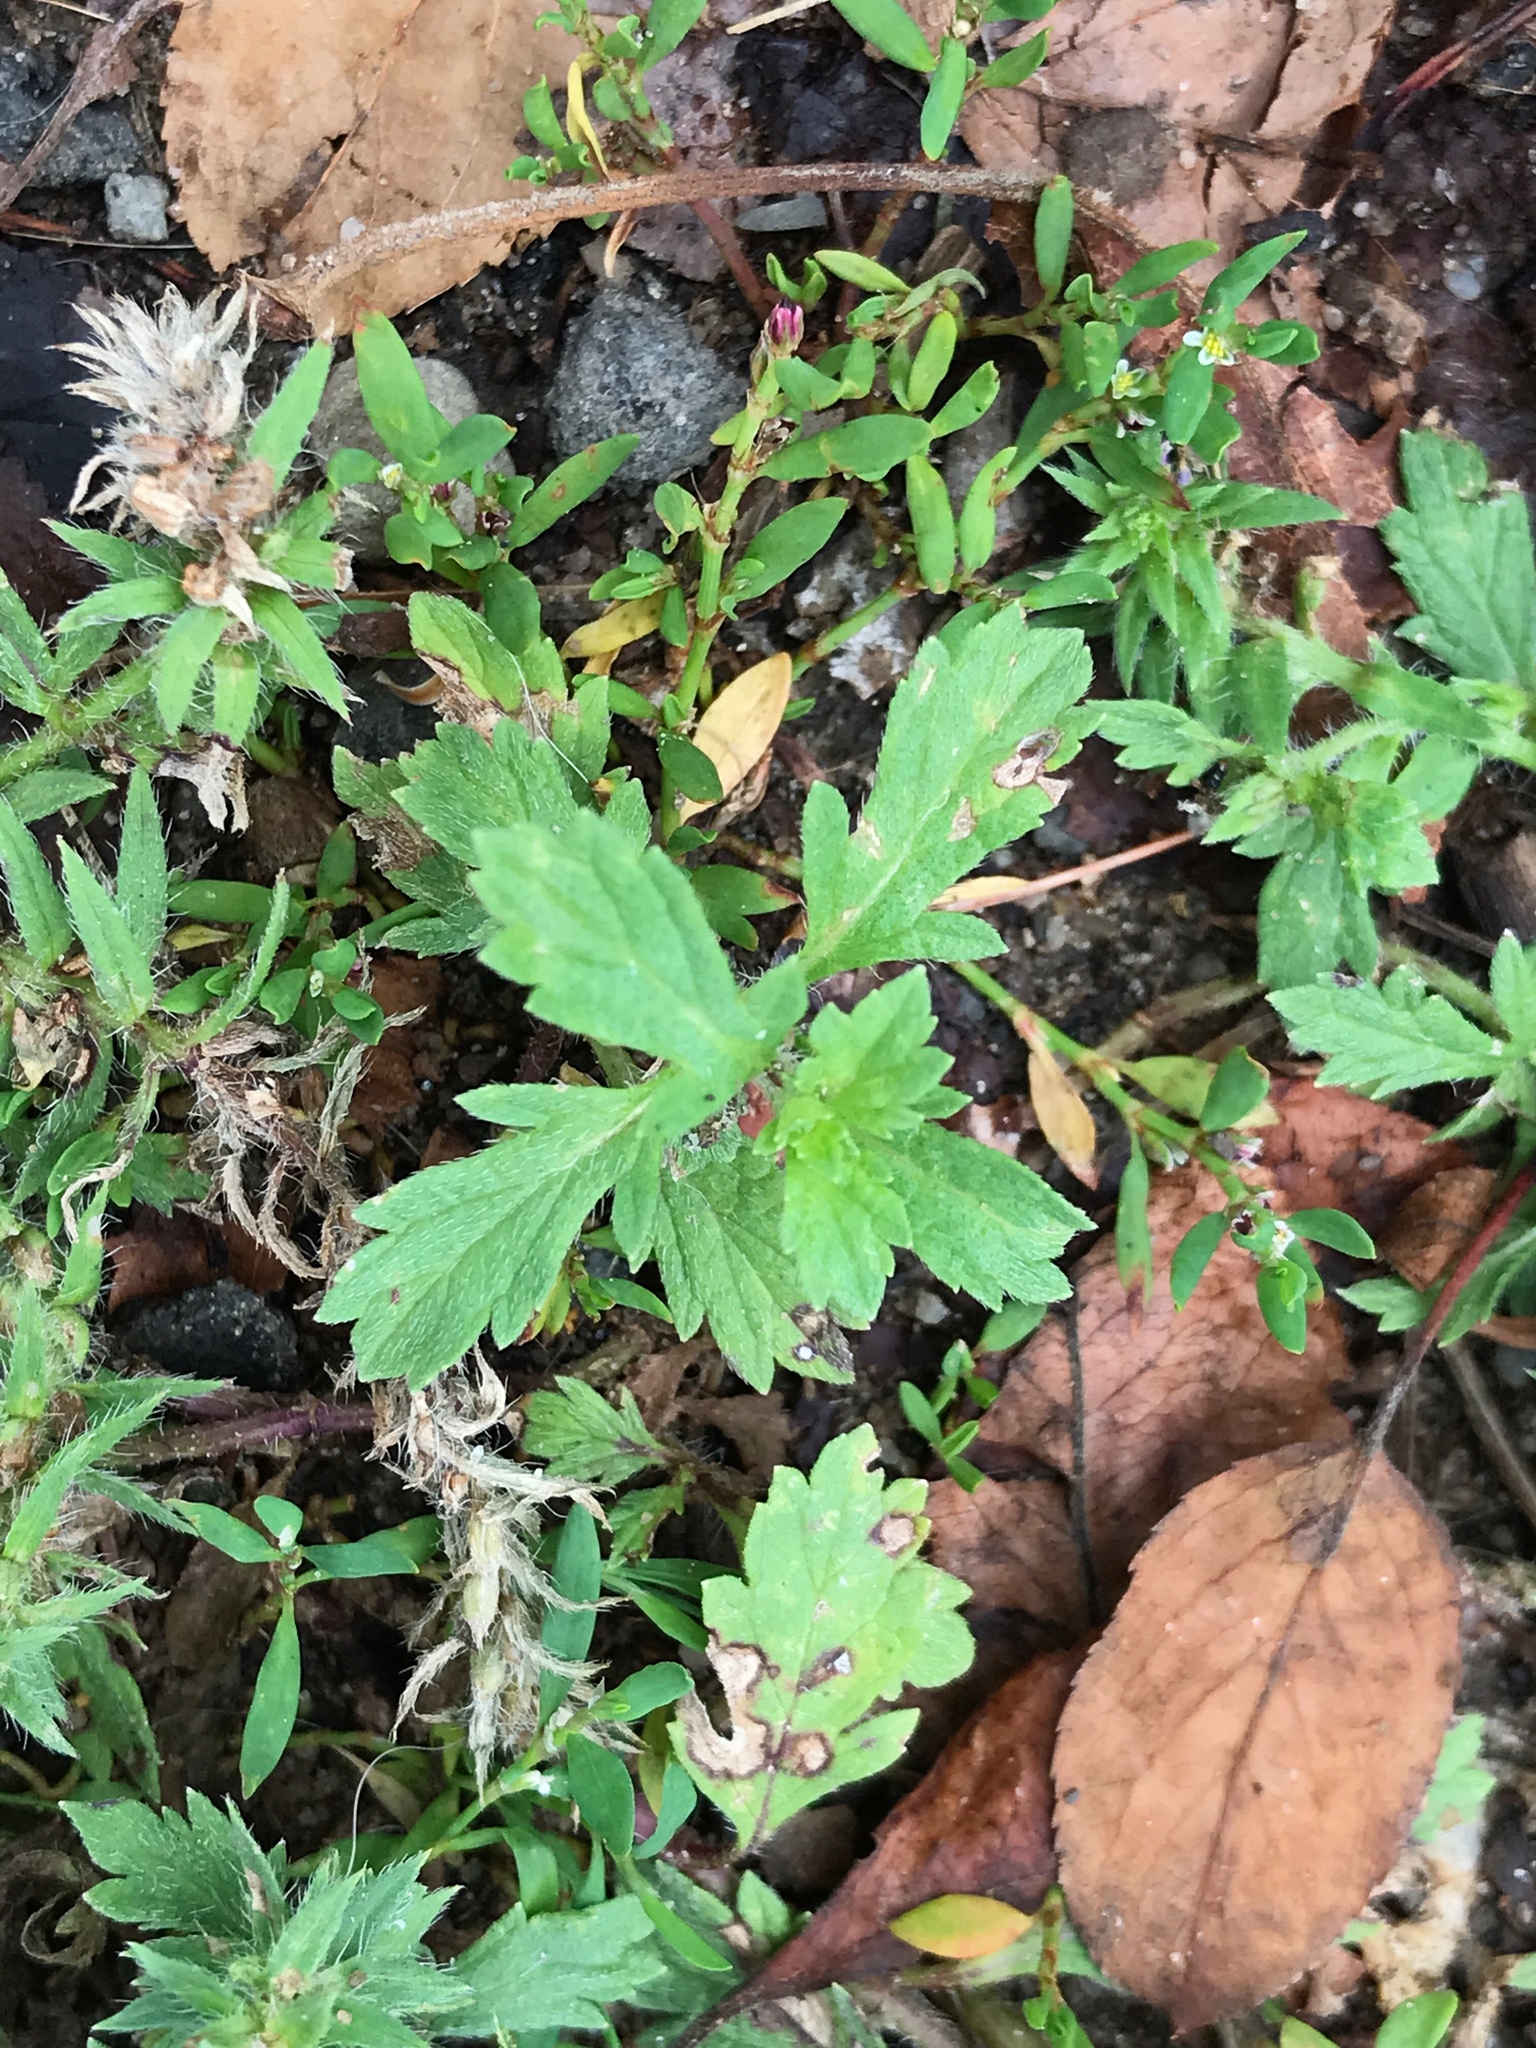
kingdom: Plantae
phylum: Tracheophyta
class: Magnoliopsida
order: Lamiales
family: Verbenaceae
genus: Verbena
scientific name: Verbena bracteata
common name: Bracted vervain
